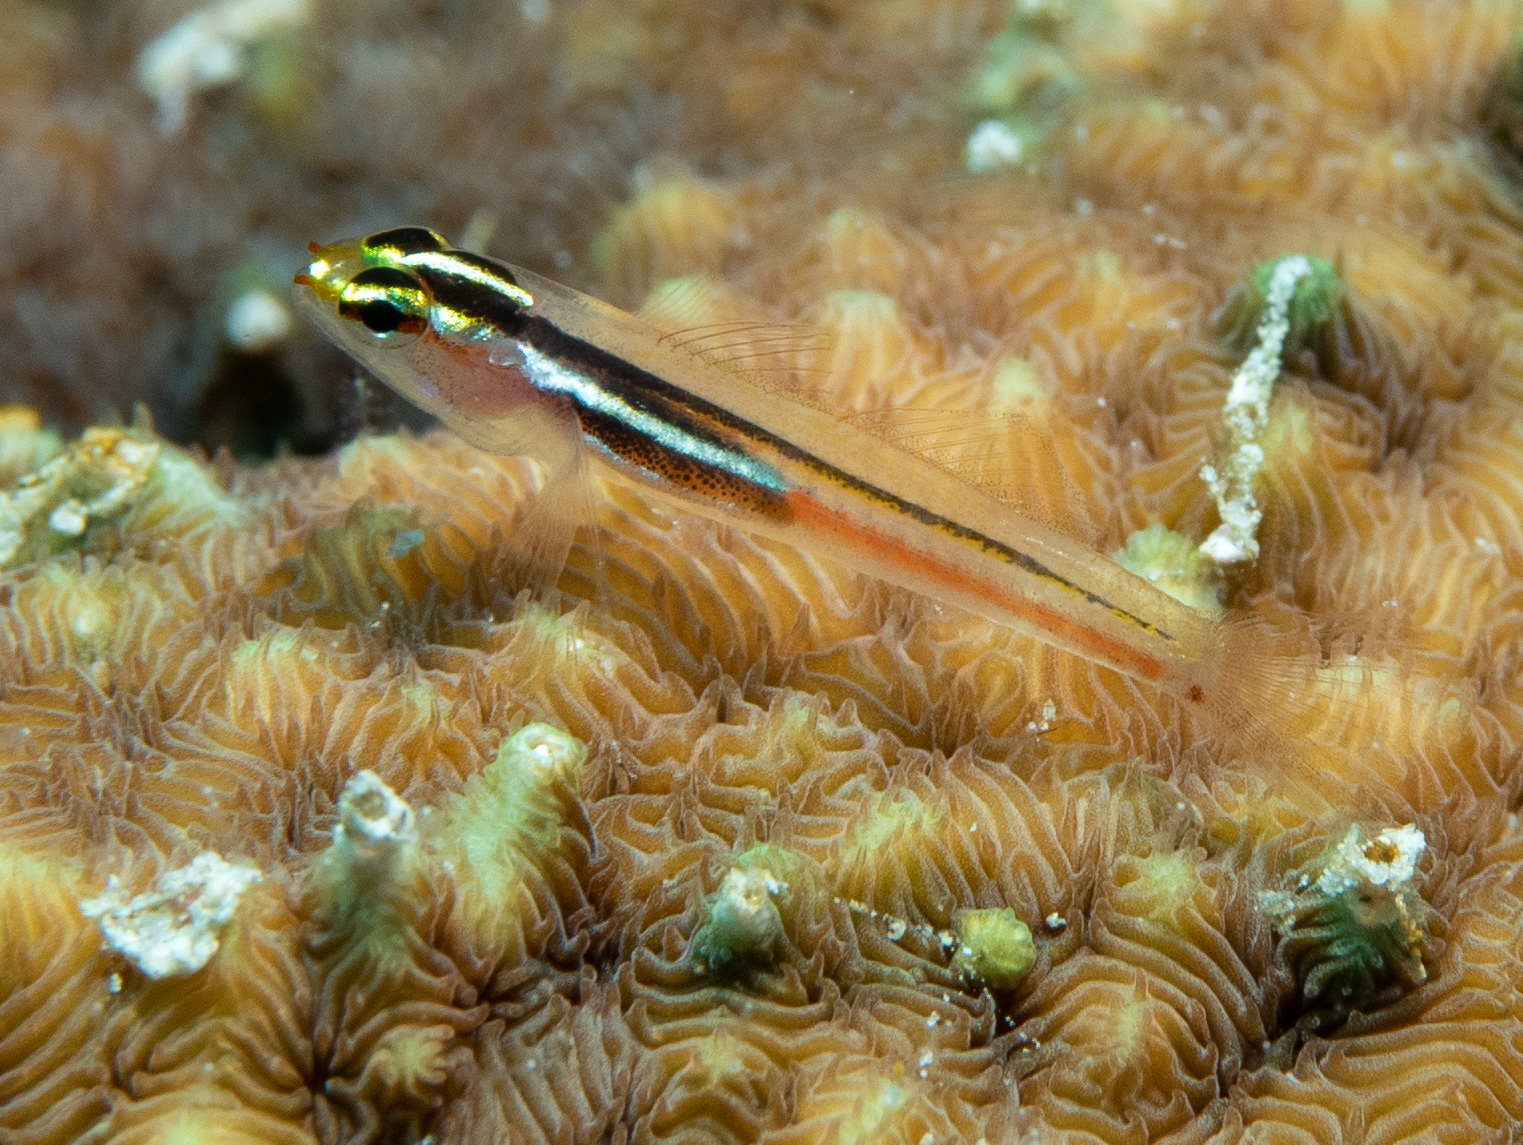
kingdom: Animalia
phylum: Chordata
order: Perciformes
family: Gobiidae
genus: Eviota
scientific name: Eviota mikiae
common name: Miki's dwarfgoby
